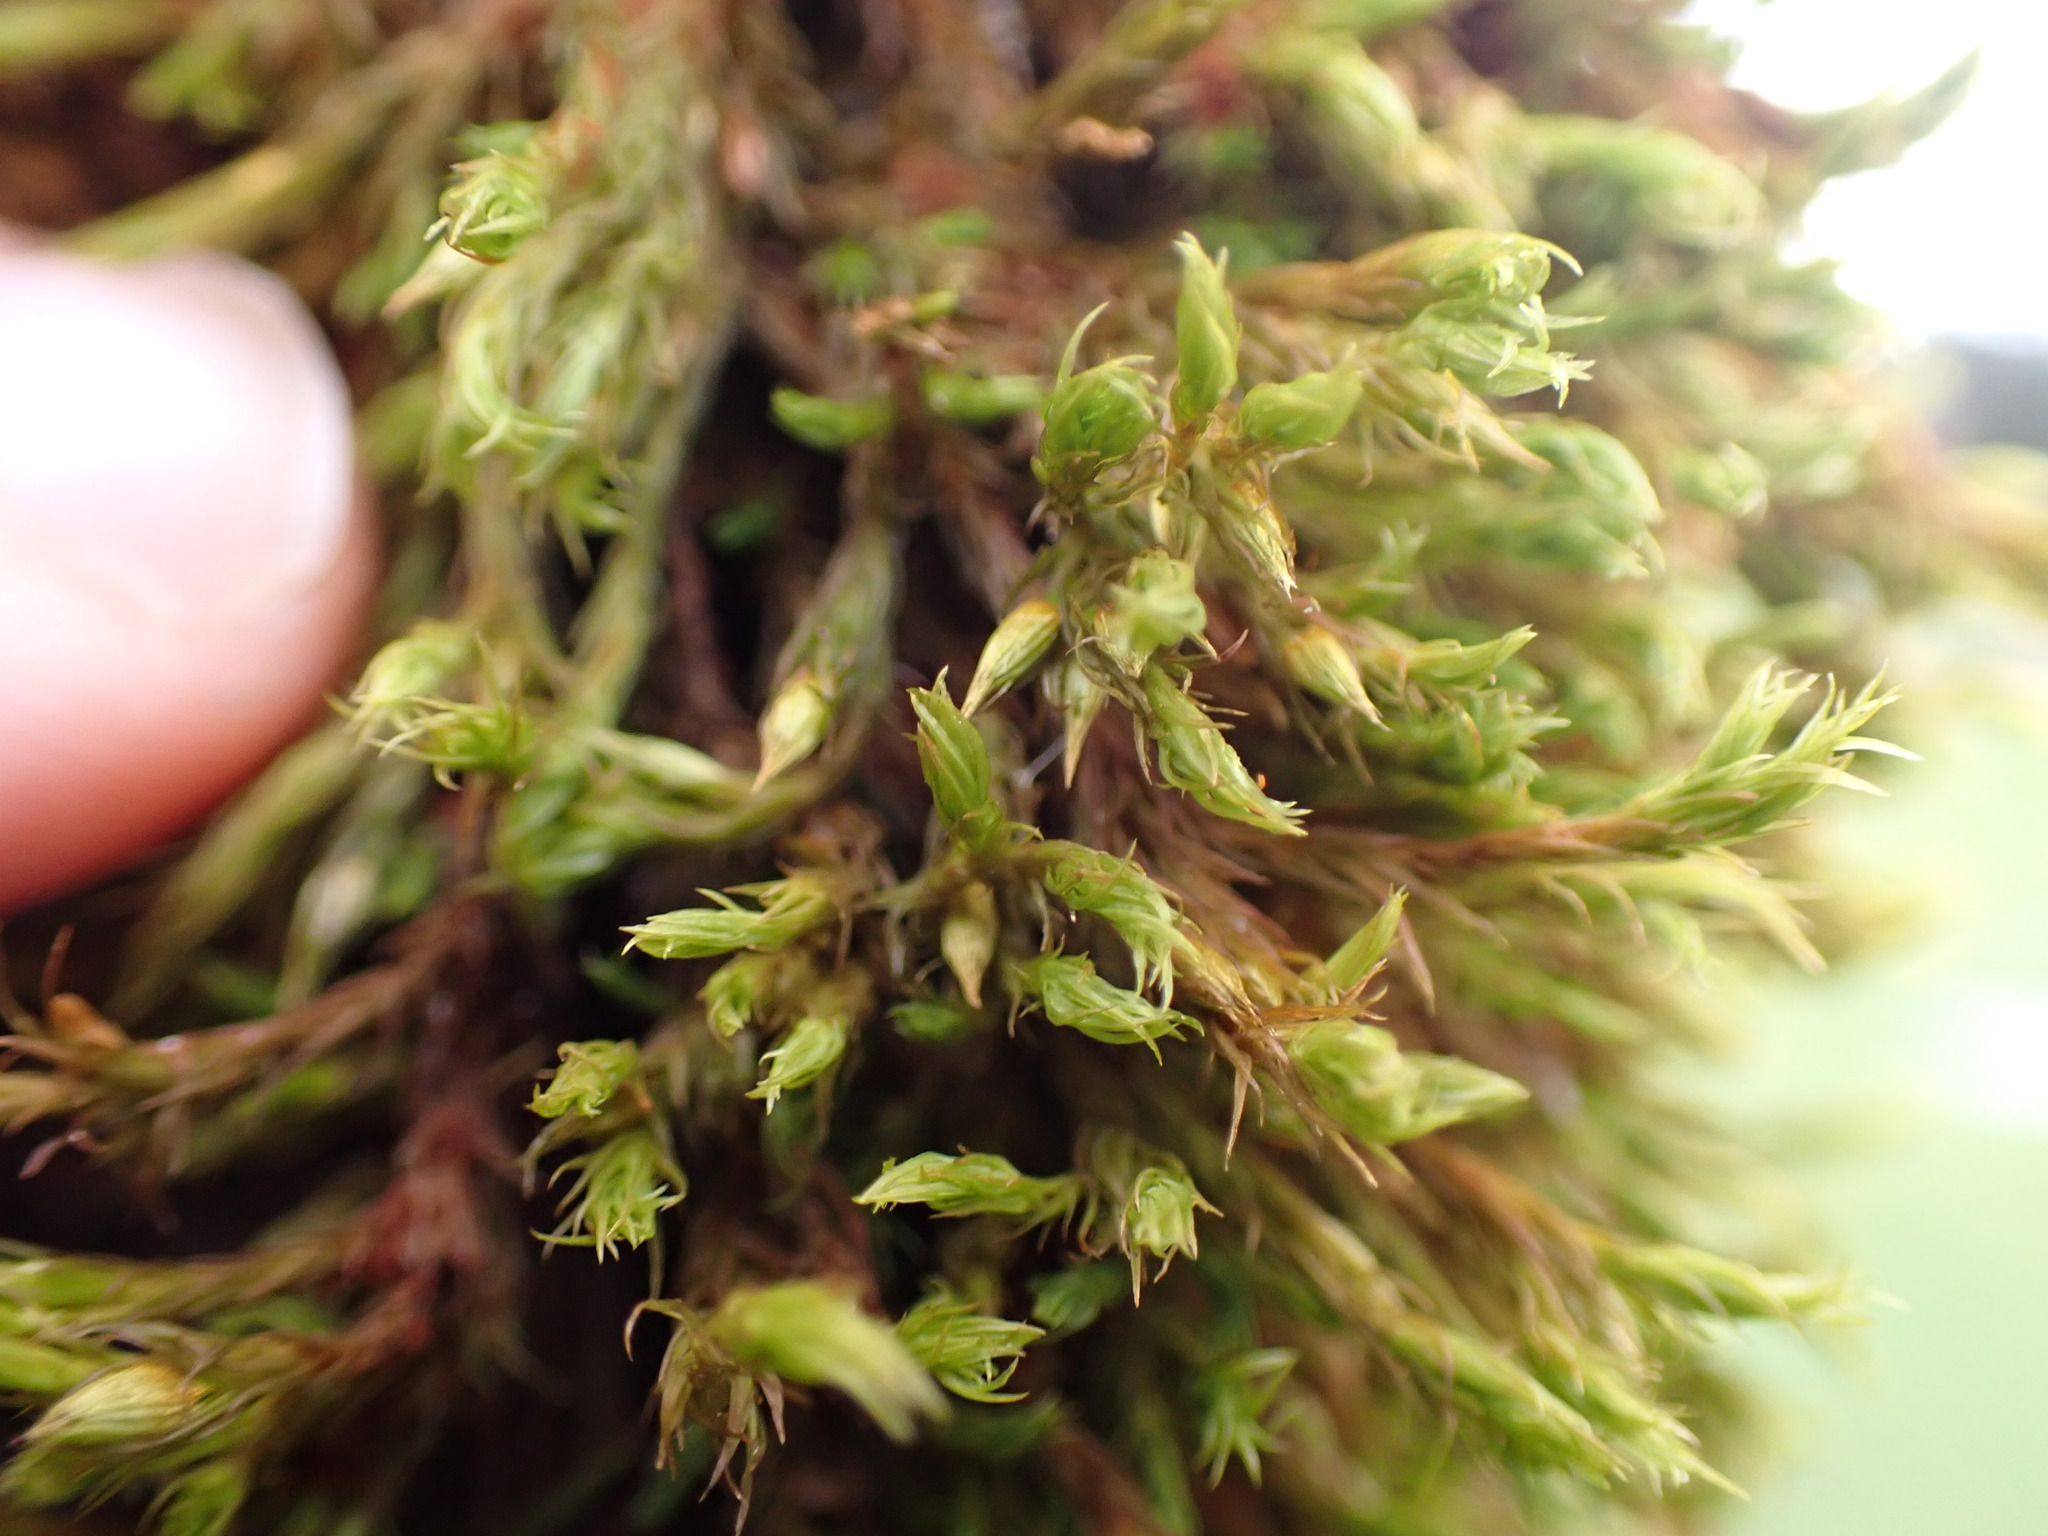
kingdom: Plantae
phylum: Bryophyta
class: Bryopsida
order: Orthotrichales
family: Orthotrichaceae
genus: Pulvigera
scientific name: Pulvigera papillosa
